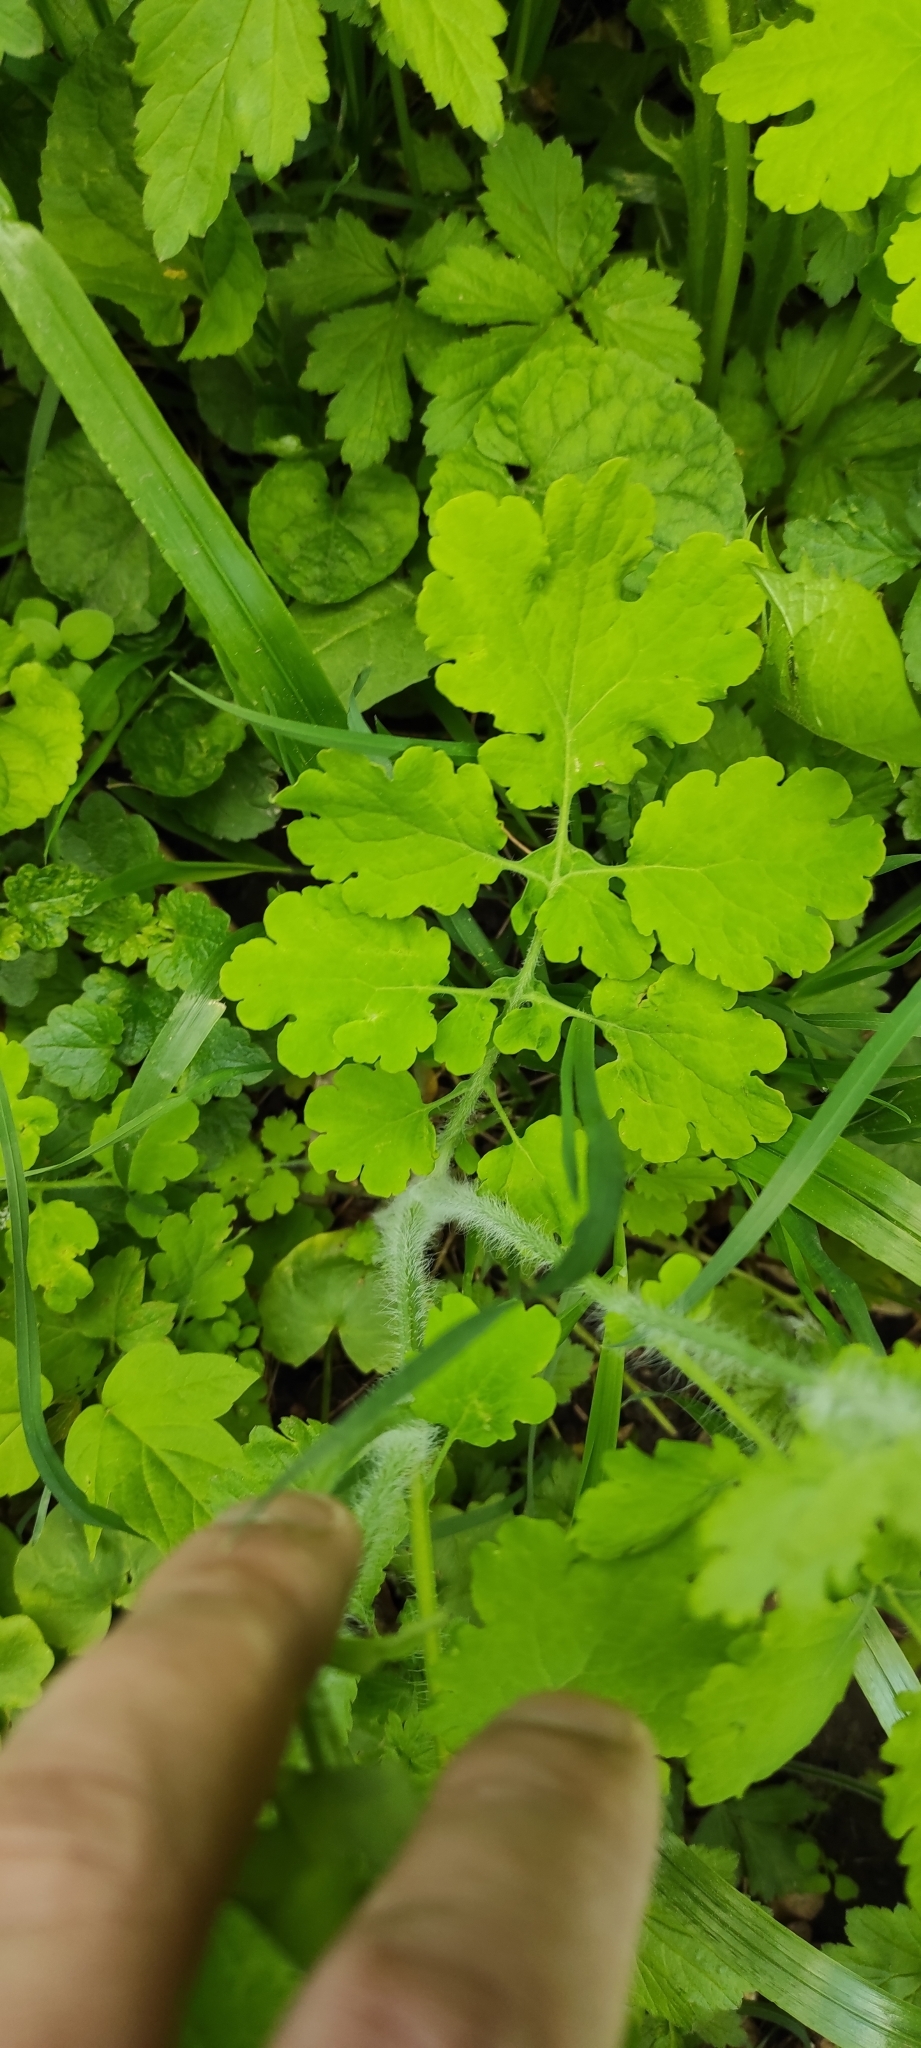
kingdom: Plantae
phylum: Tracheophyta
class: Magnoliopsida
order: Ranunculales
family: Papaveraceae
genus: Chelidonium
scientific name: Chelidonium majus
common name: Greater celandine
